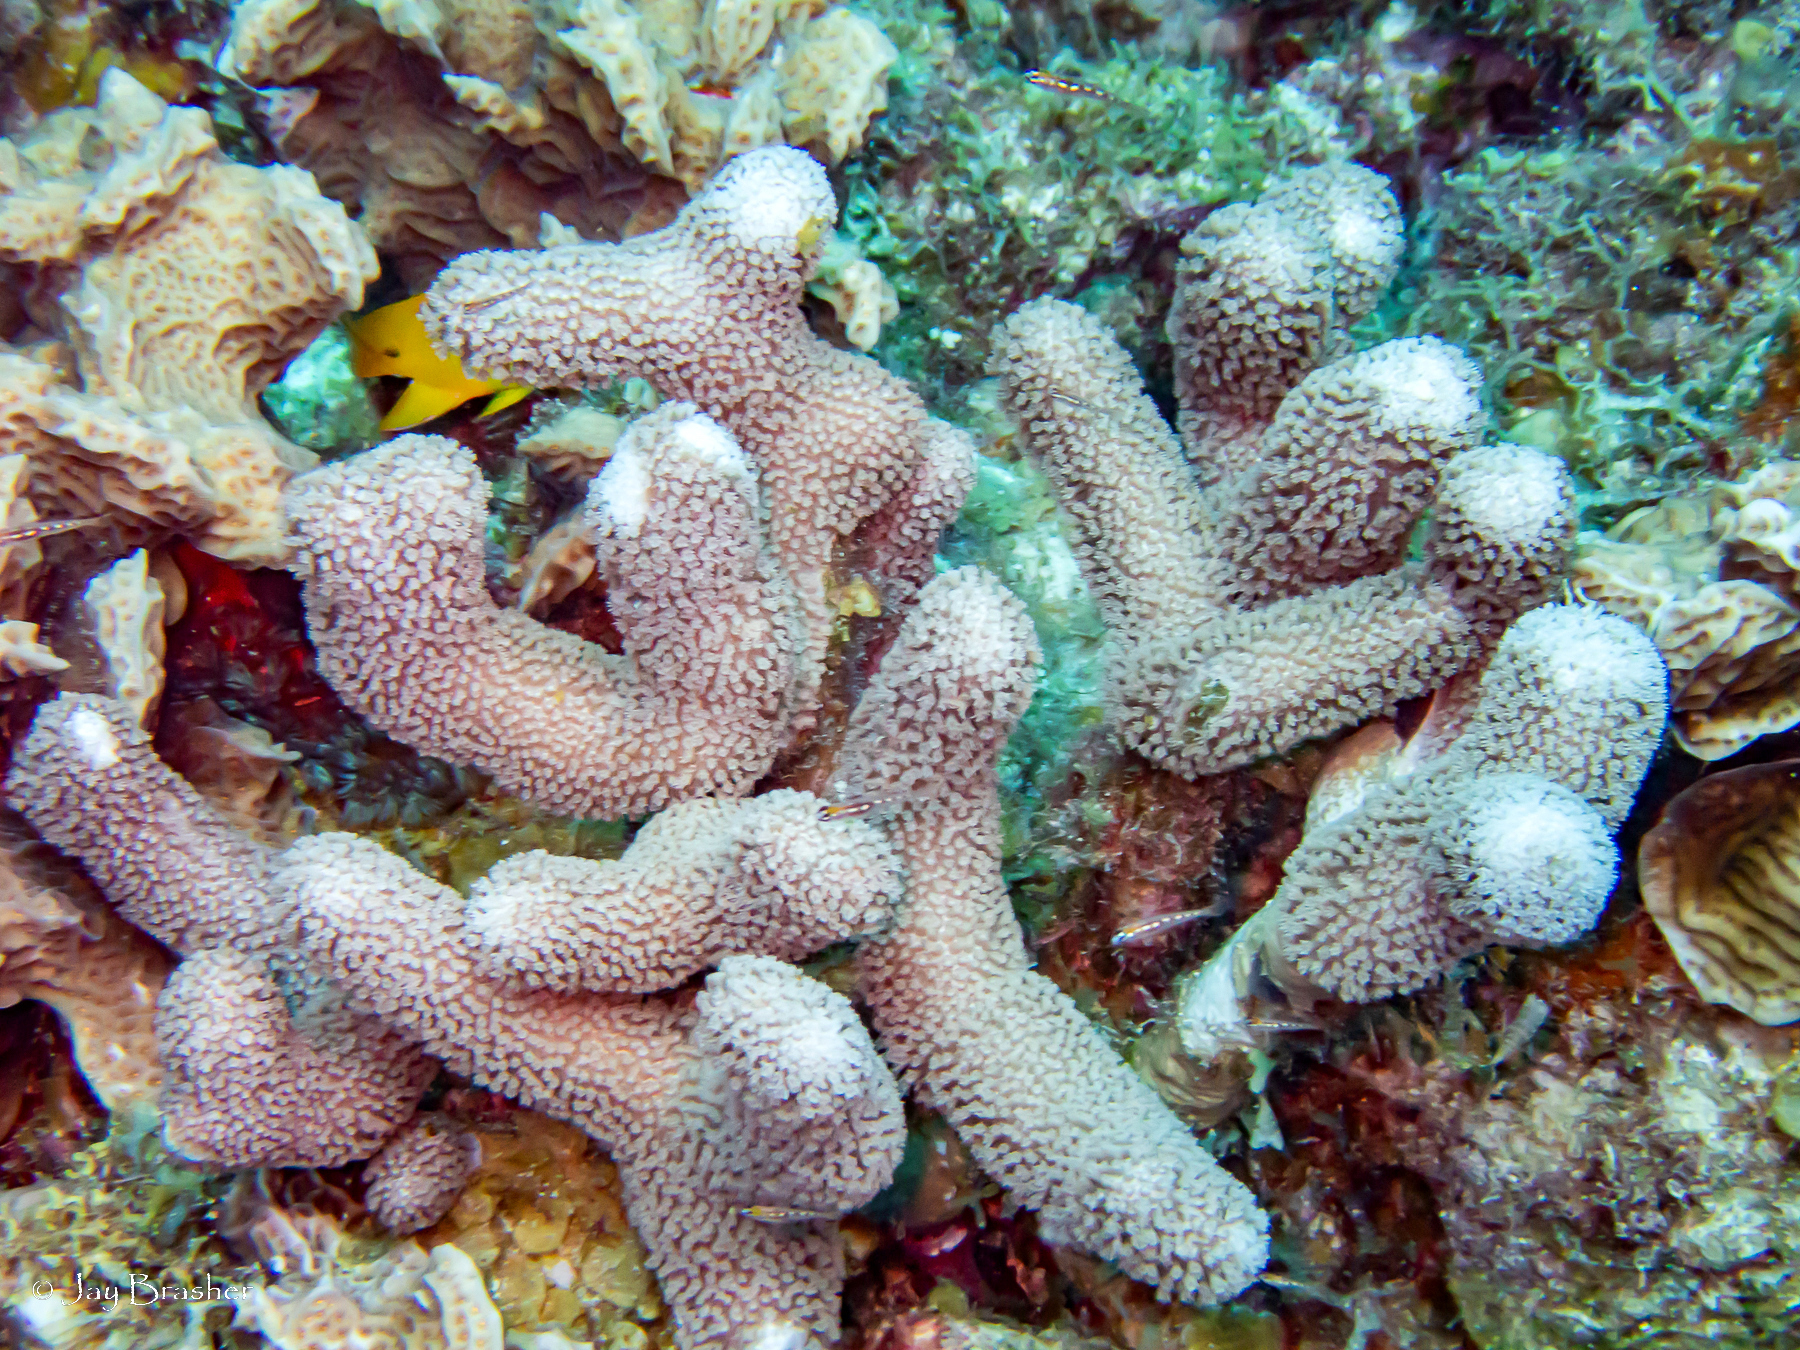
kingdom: Animalia
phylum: Cnidaria
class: Anthozoa
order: Scleractinia
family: Poritidae
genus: Porites
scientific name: Porites porites
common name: Finger coral
